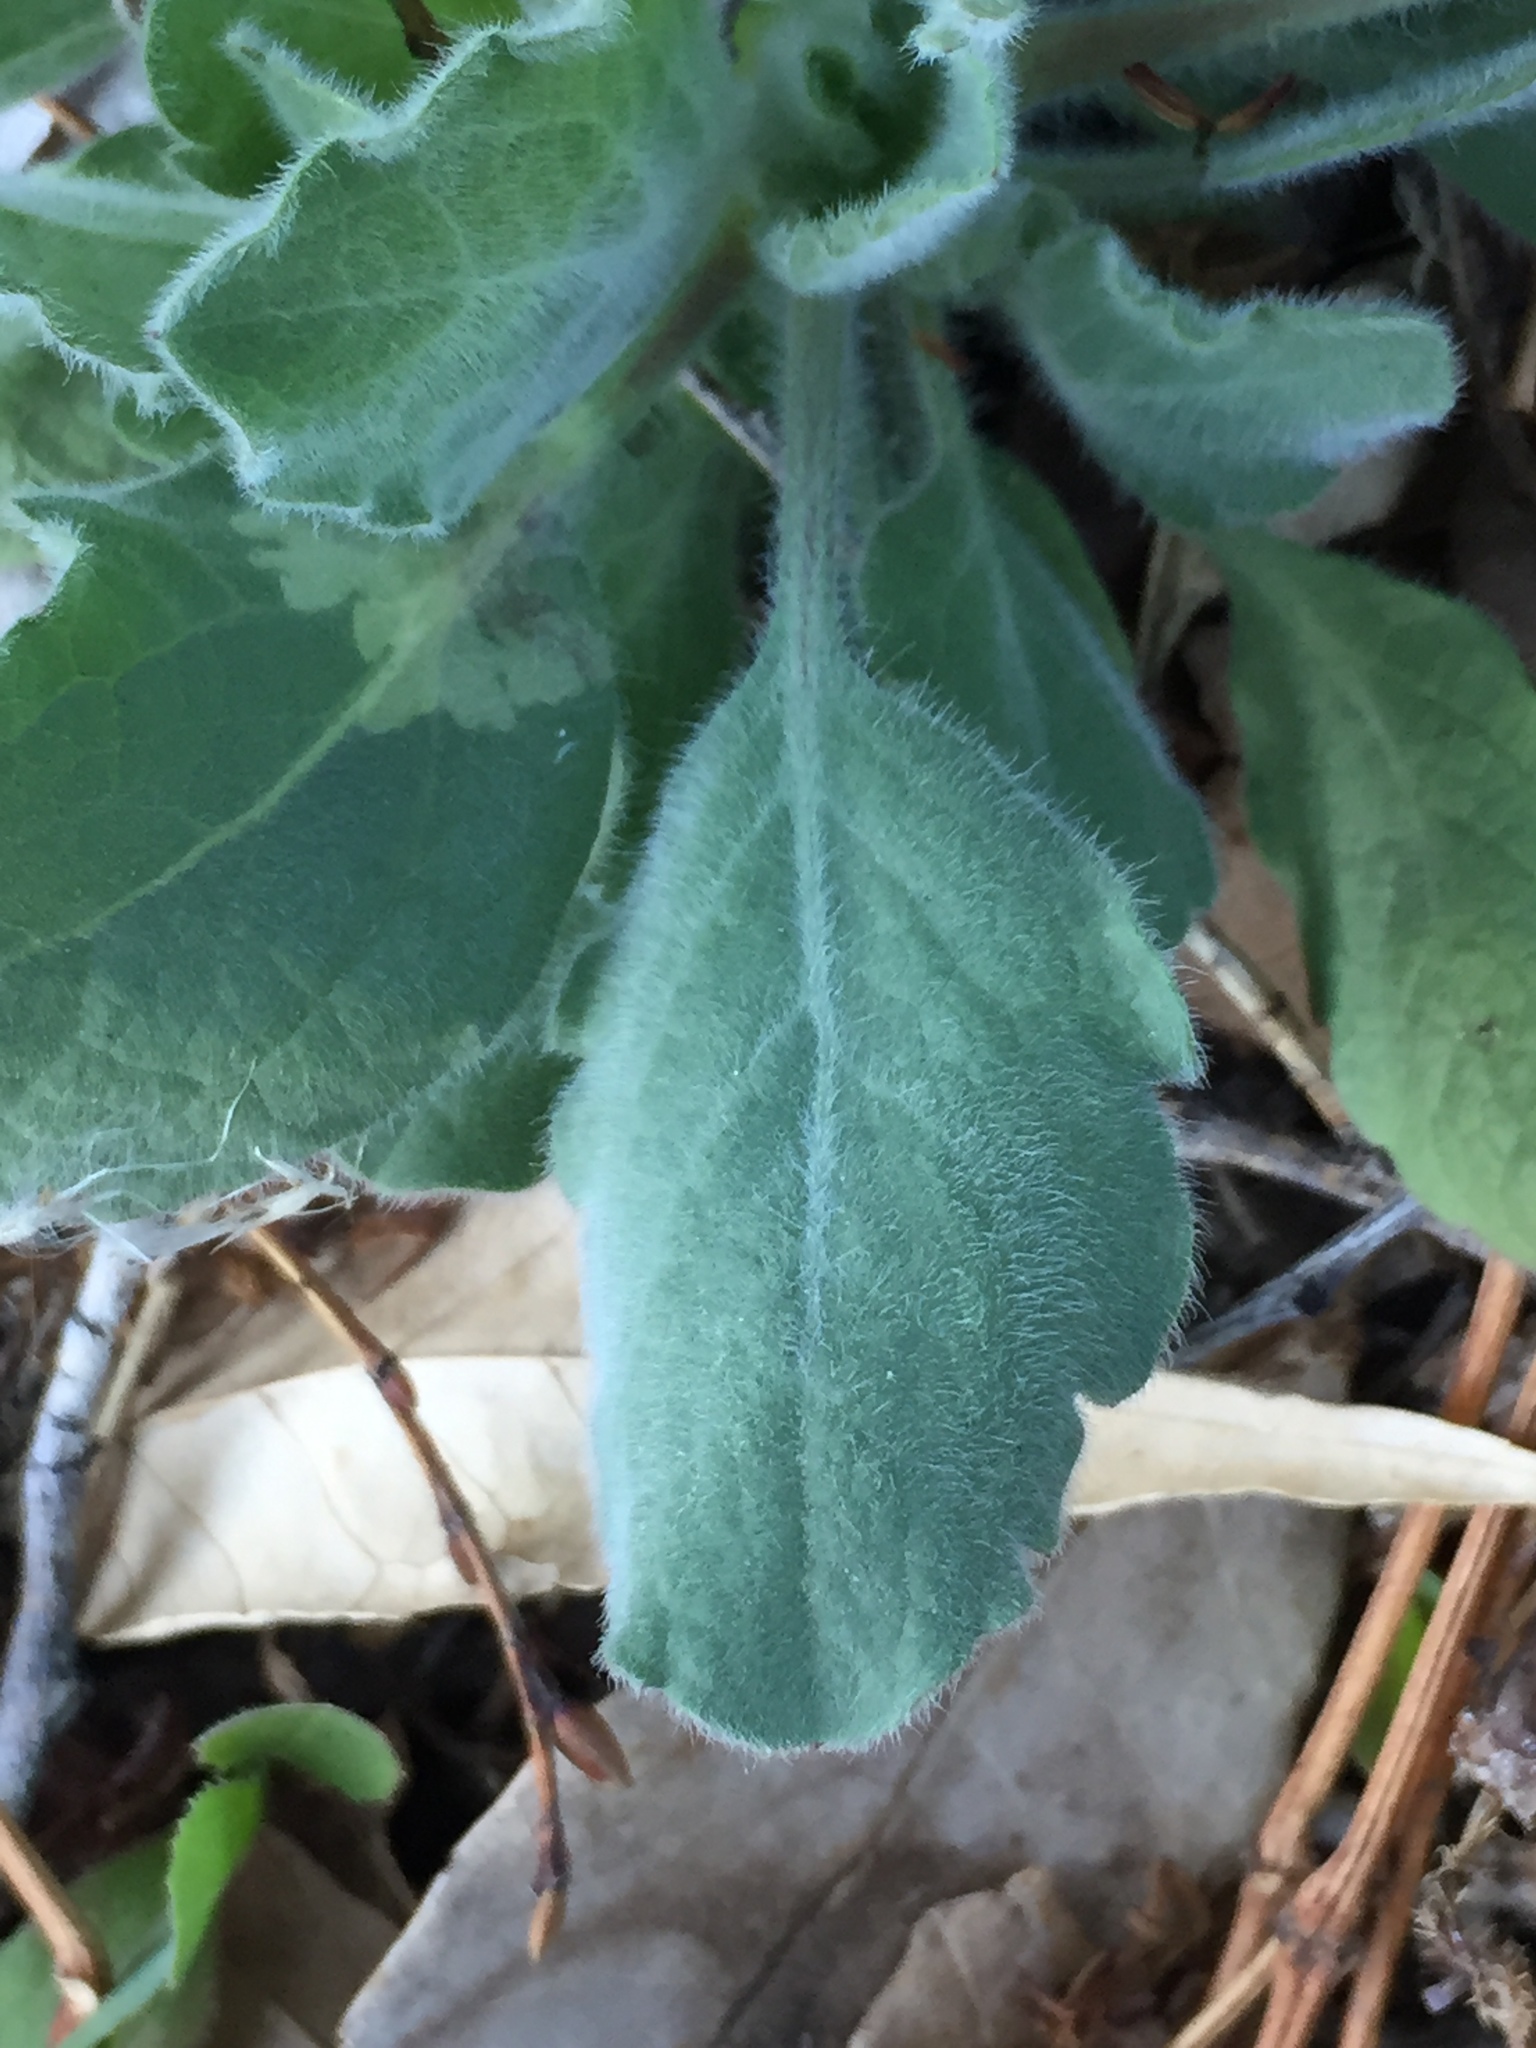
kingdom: Plantae
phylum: Tracheophyta
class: Magnoliopsida
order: Asterales
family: Asteraceae
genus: Heterotheca
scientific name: Heterotheca grandiflora
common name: Telegraphweed
